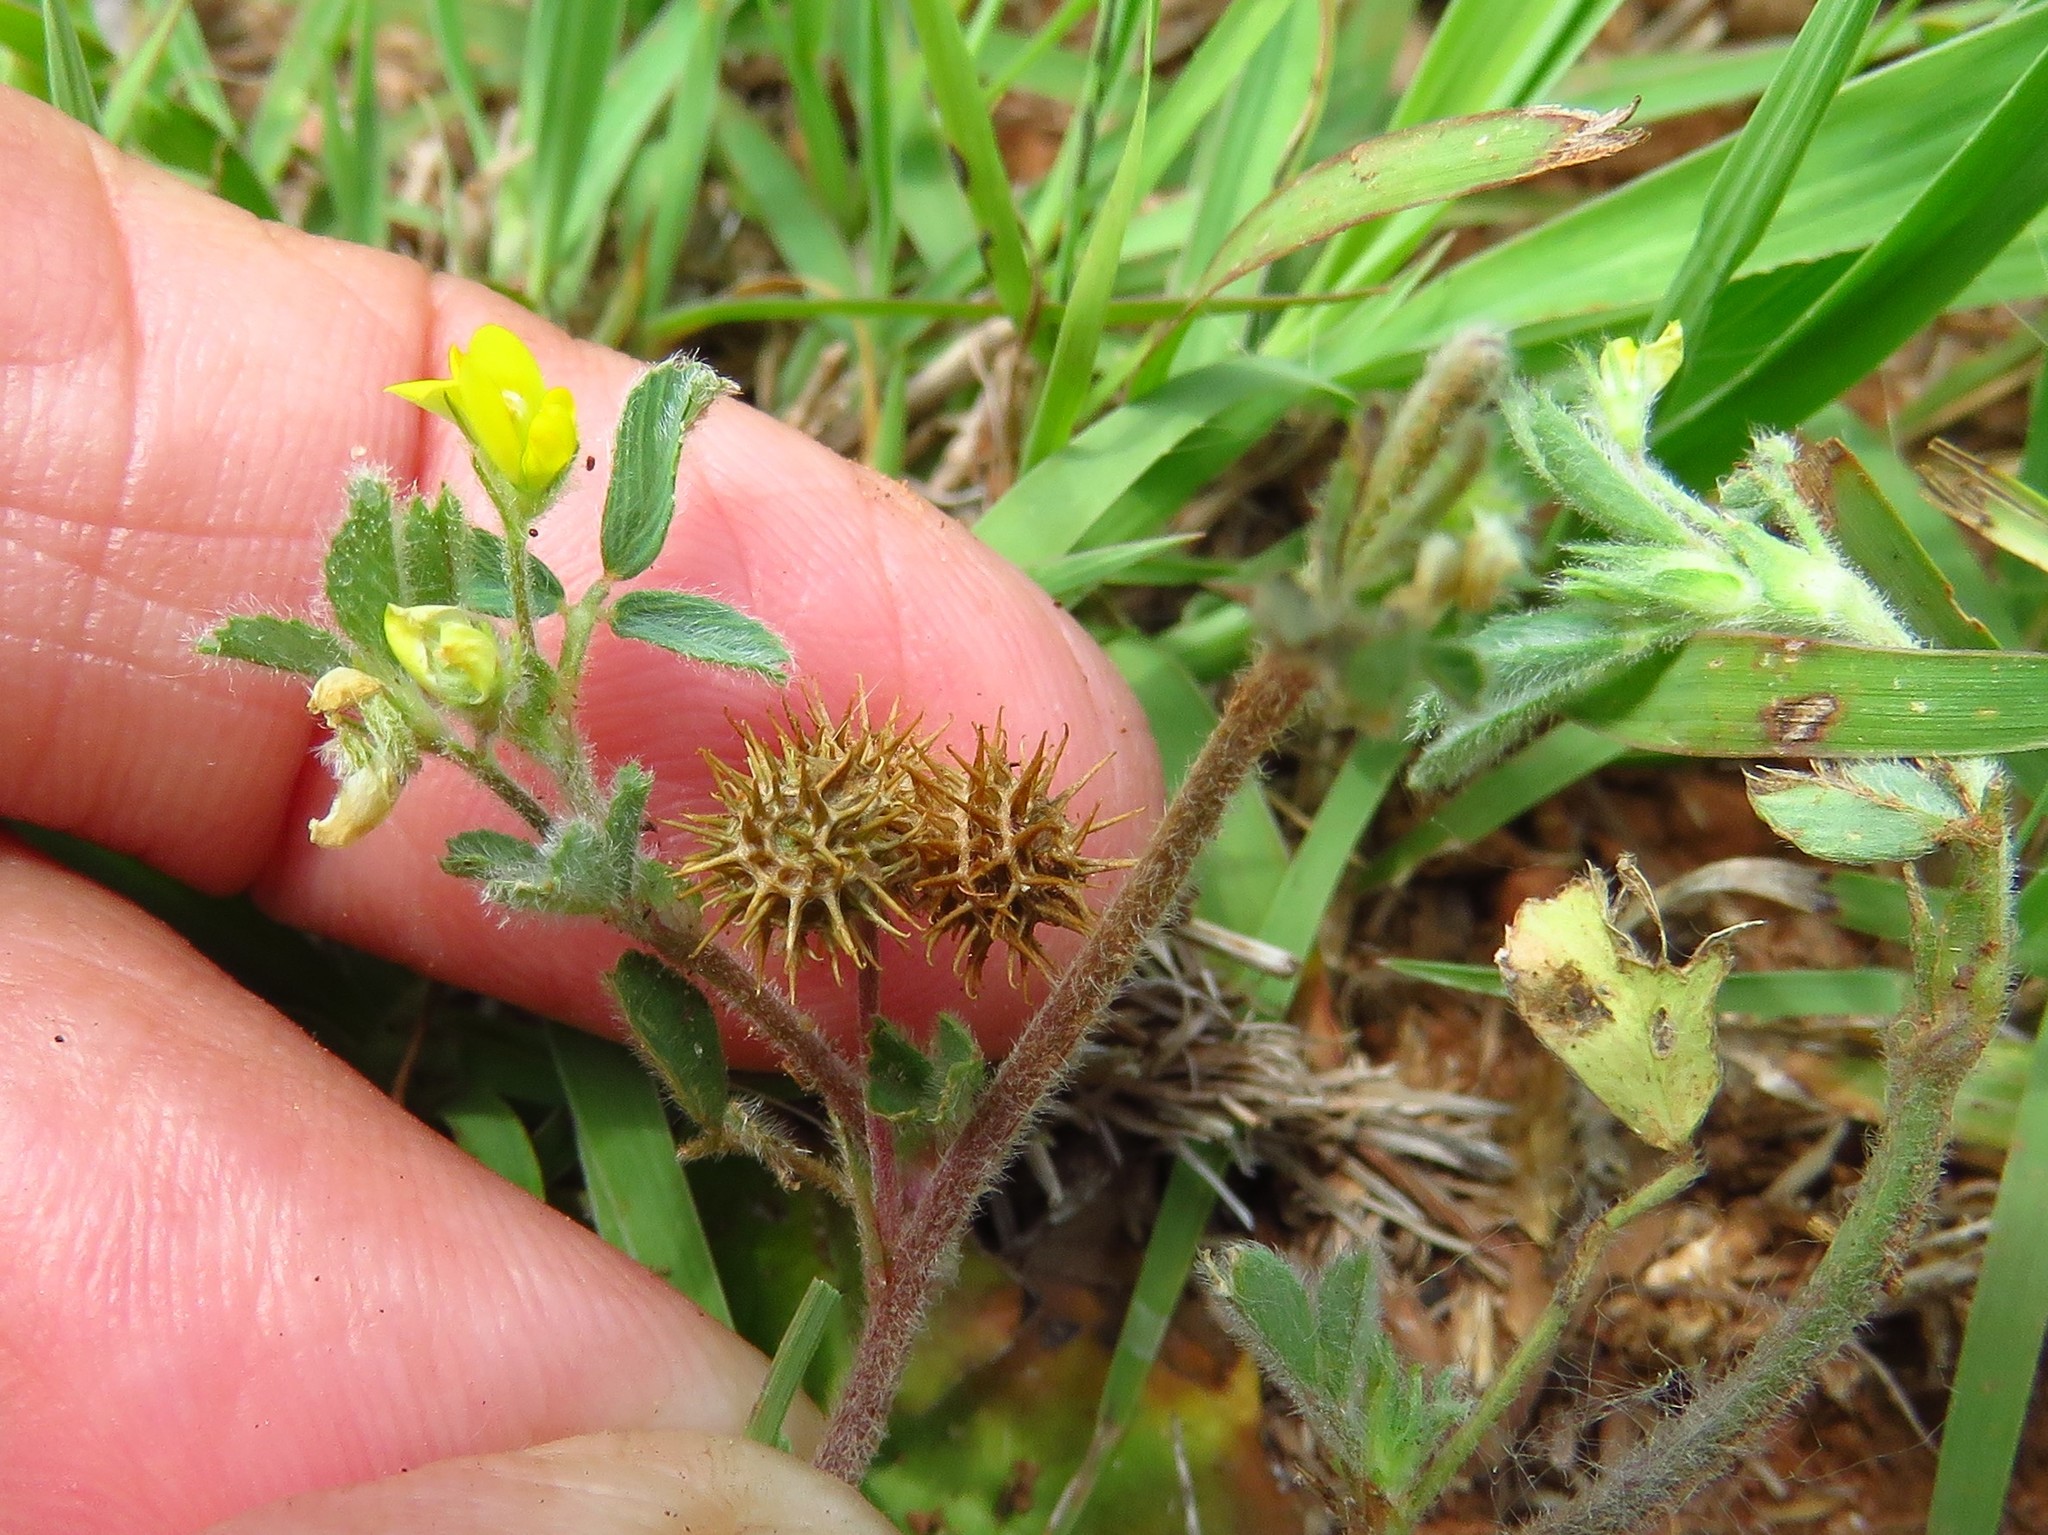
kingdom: Plantae
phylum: Tracheophyta
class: Magnoliopsida
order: Fabales
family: Fabaceae
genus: Medicago
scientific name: Medicago minima
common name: Little bur-clover
